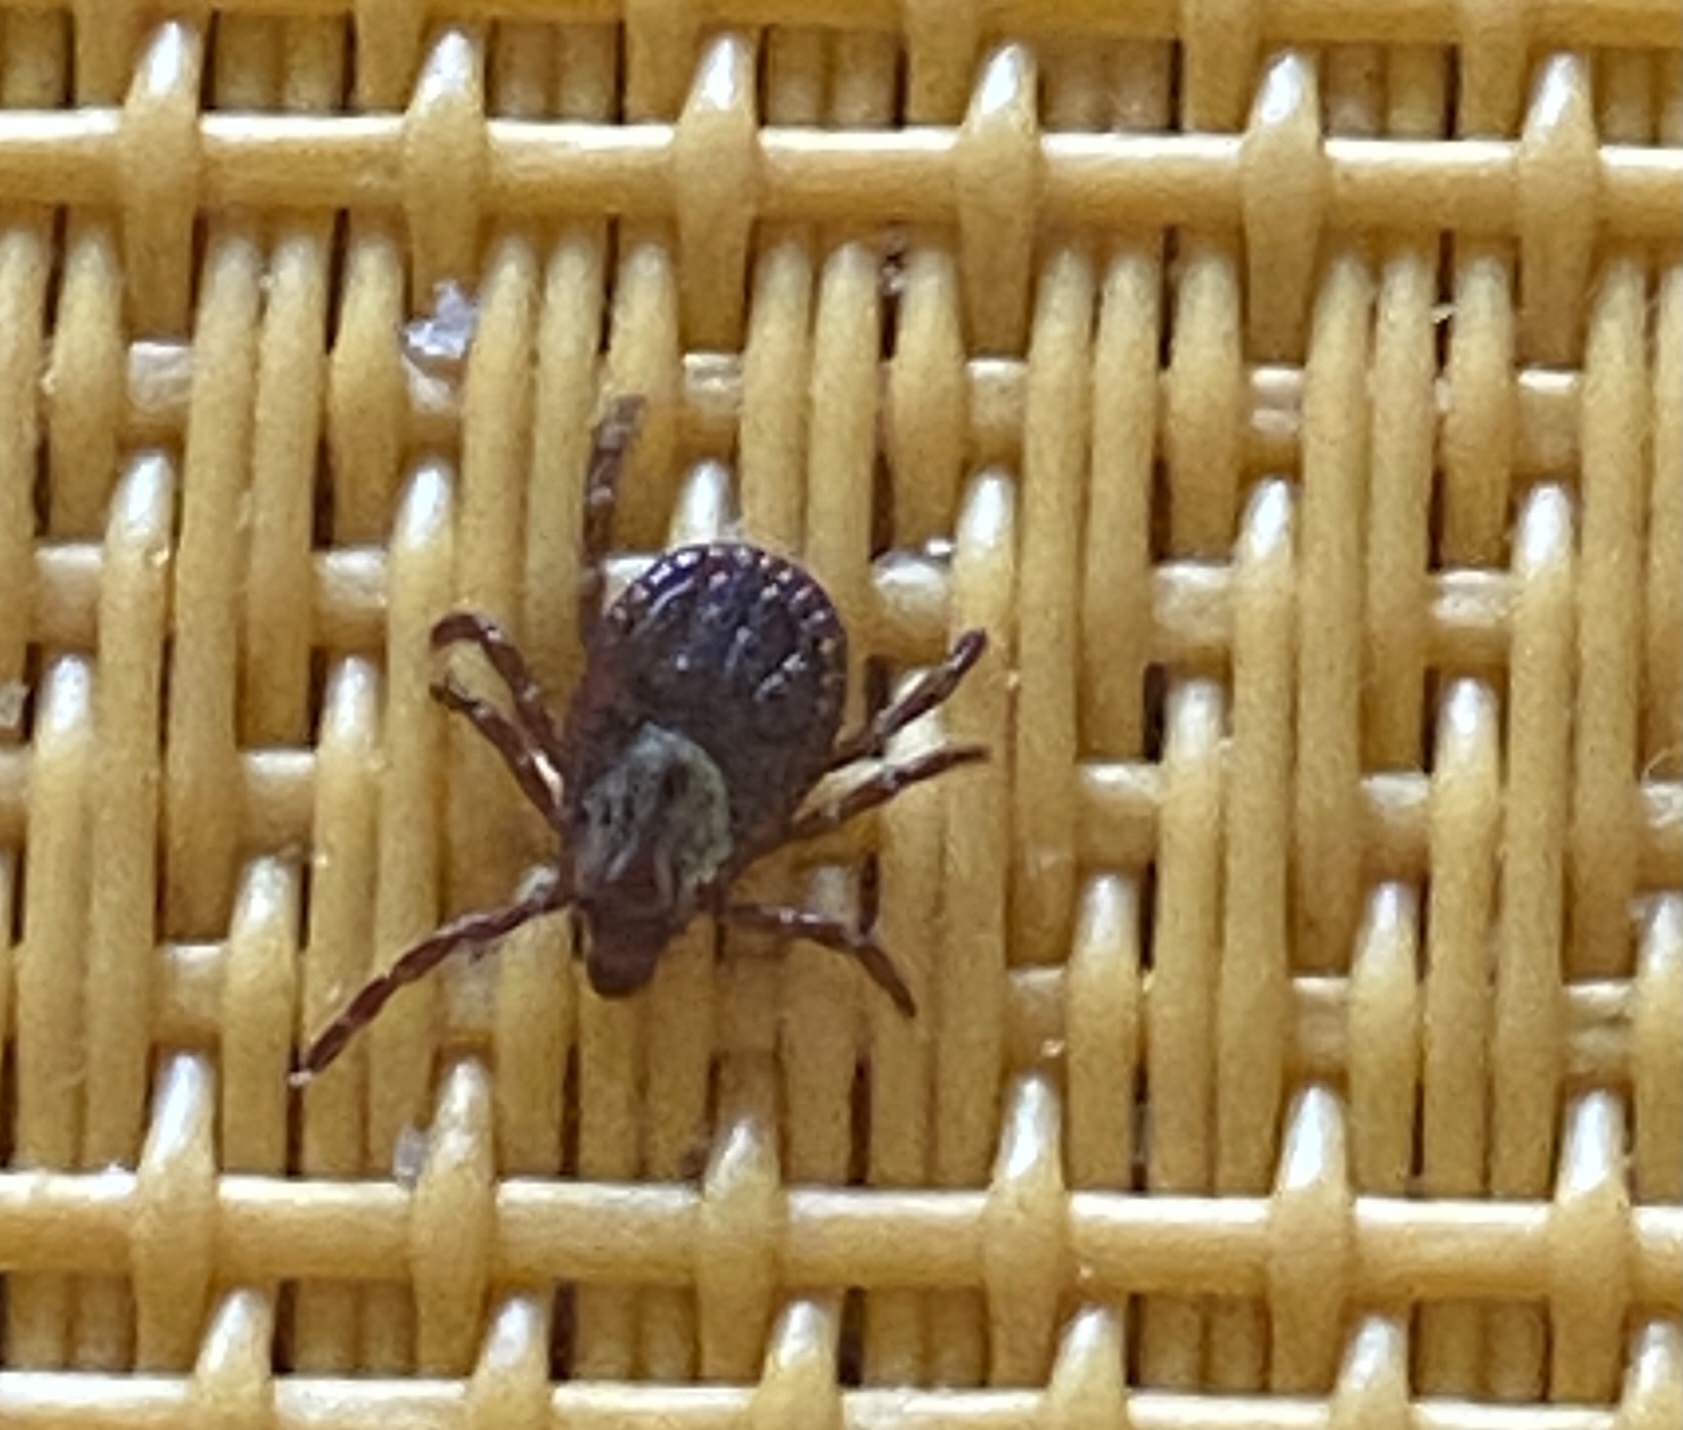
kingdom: Animalia
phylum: Arthropoda
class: Arachnida
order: Ixodida
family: Ixodidae
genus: Dermacentor
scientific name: Dermacentor variabilis
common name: American dog tick
